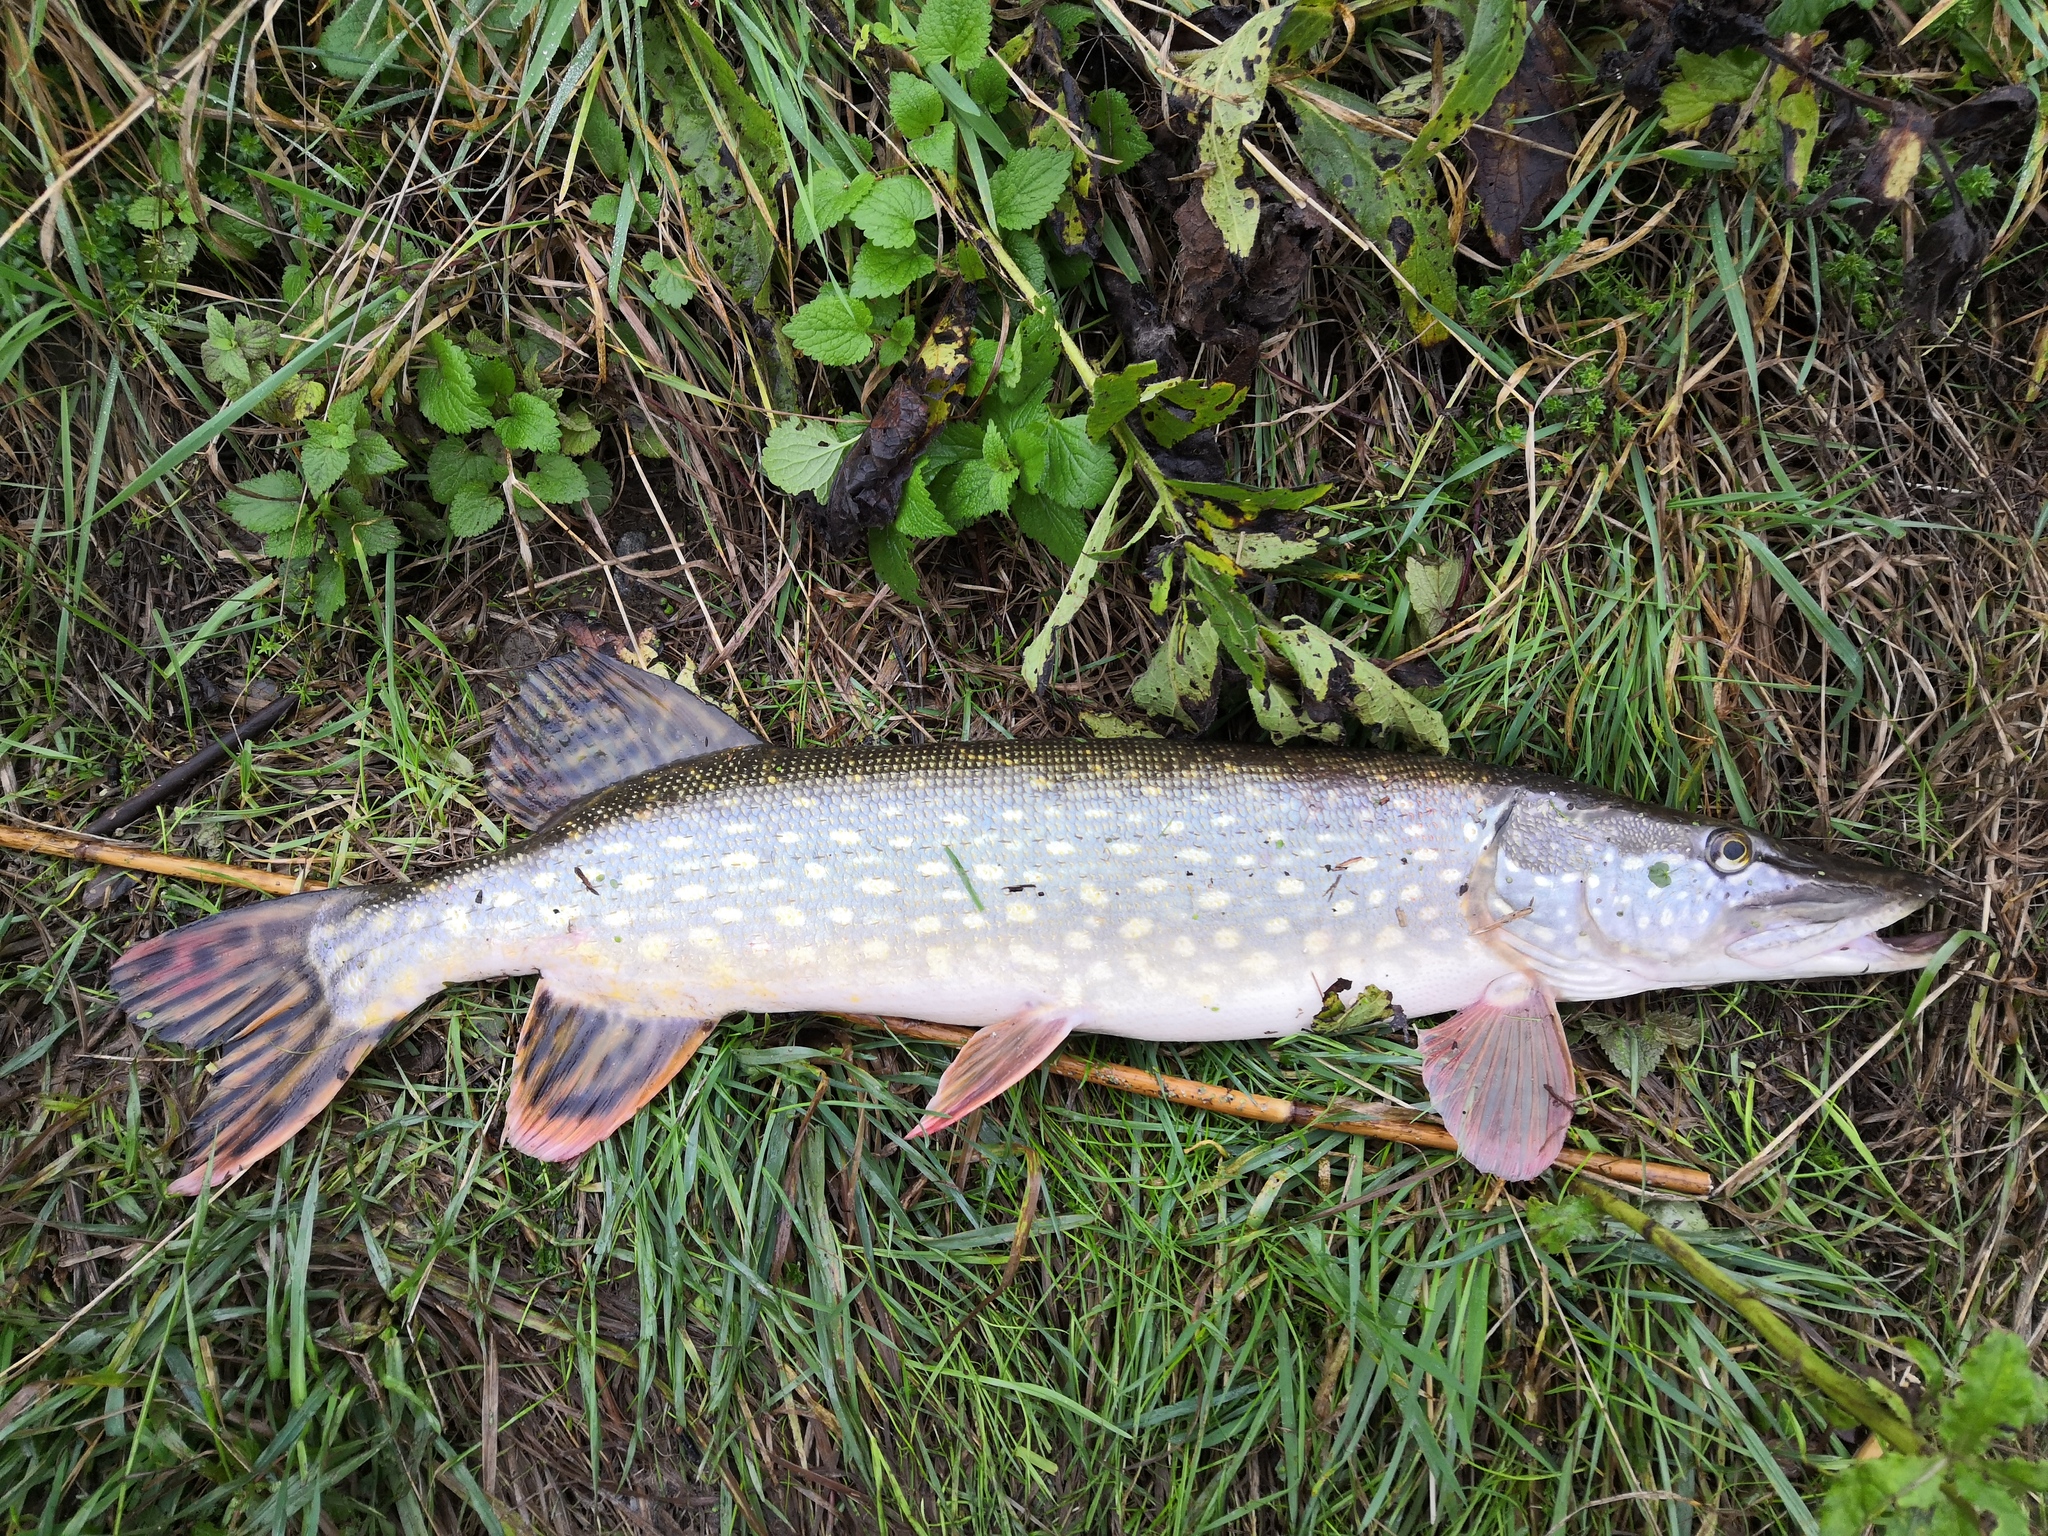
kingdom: Animalia
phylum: Chordata
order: Esociformes
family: Esocidae
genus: Esox
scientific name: Esox lucius
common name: Northern pike
